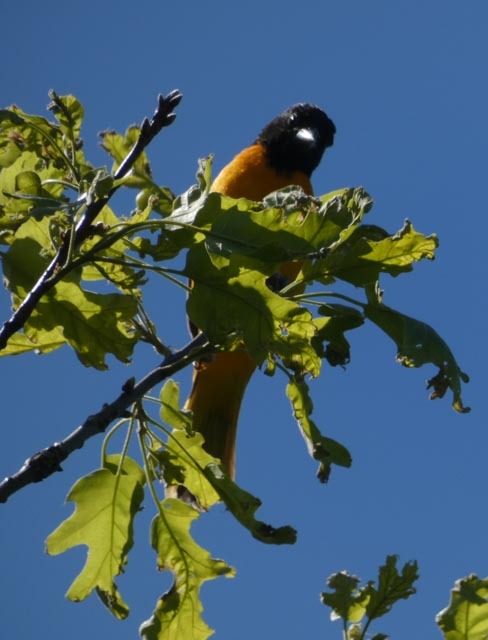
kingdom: Animalia
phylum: Chordata
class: Aves
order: Passeriformes
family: Icteridae
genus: Icterus
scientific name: Icterus galbula
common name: Baltimore oriole
